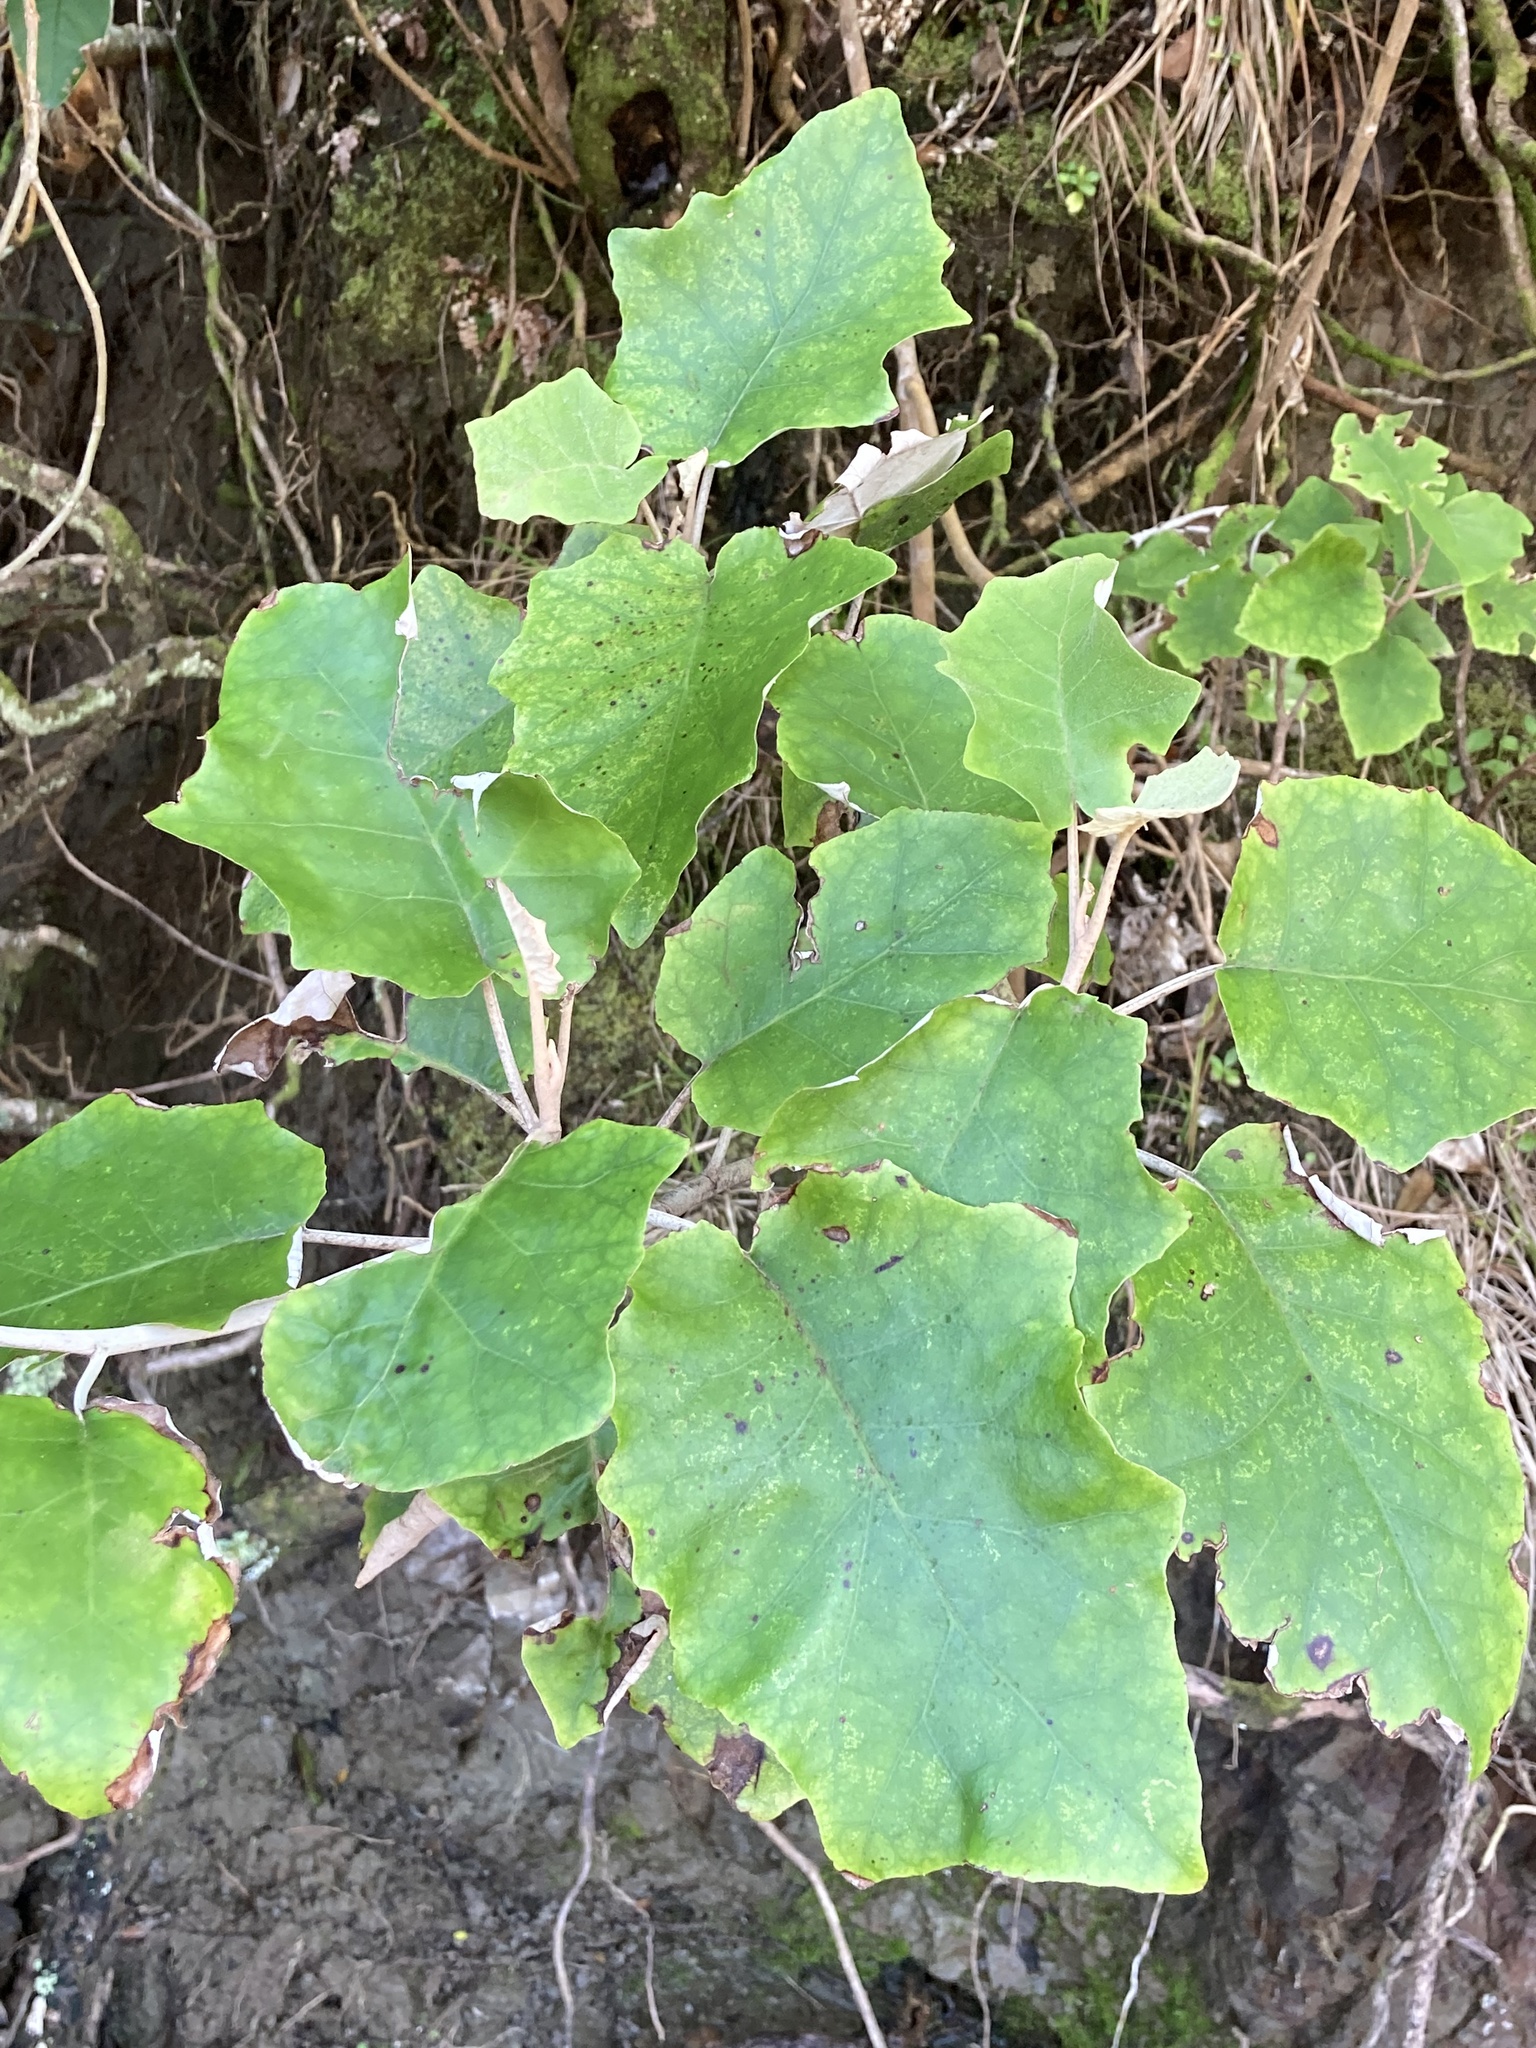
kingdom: Plantae
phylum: Tracheophyta
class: Magnoliopsida
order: Asterales
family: Asteraceae
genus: Brachyglottis
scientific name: Brachyglottis repanda
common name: Hedge ragwort
